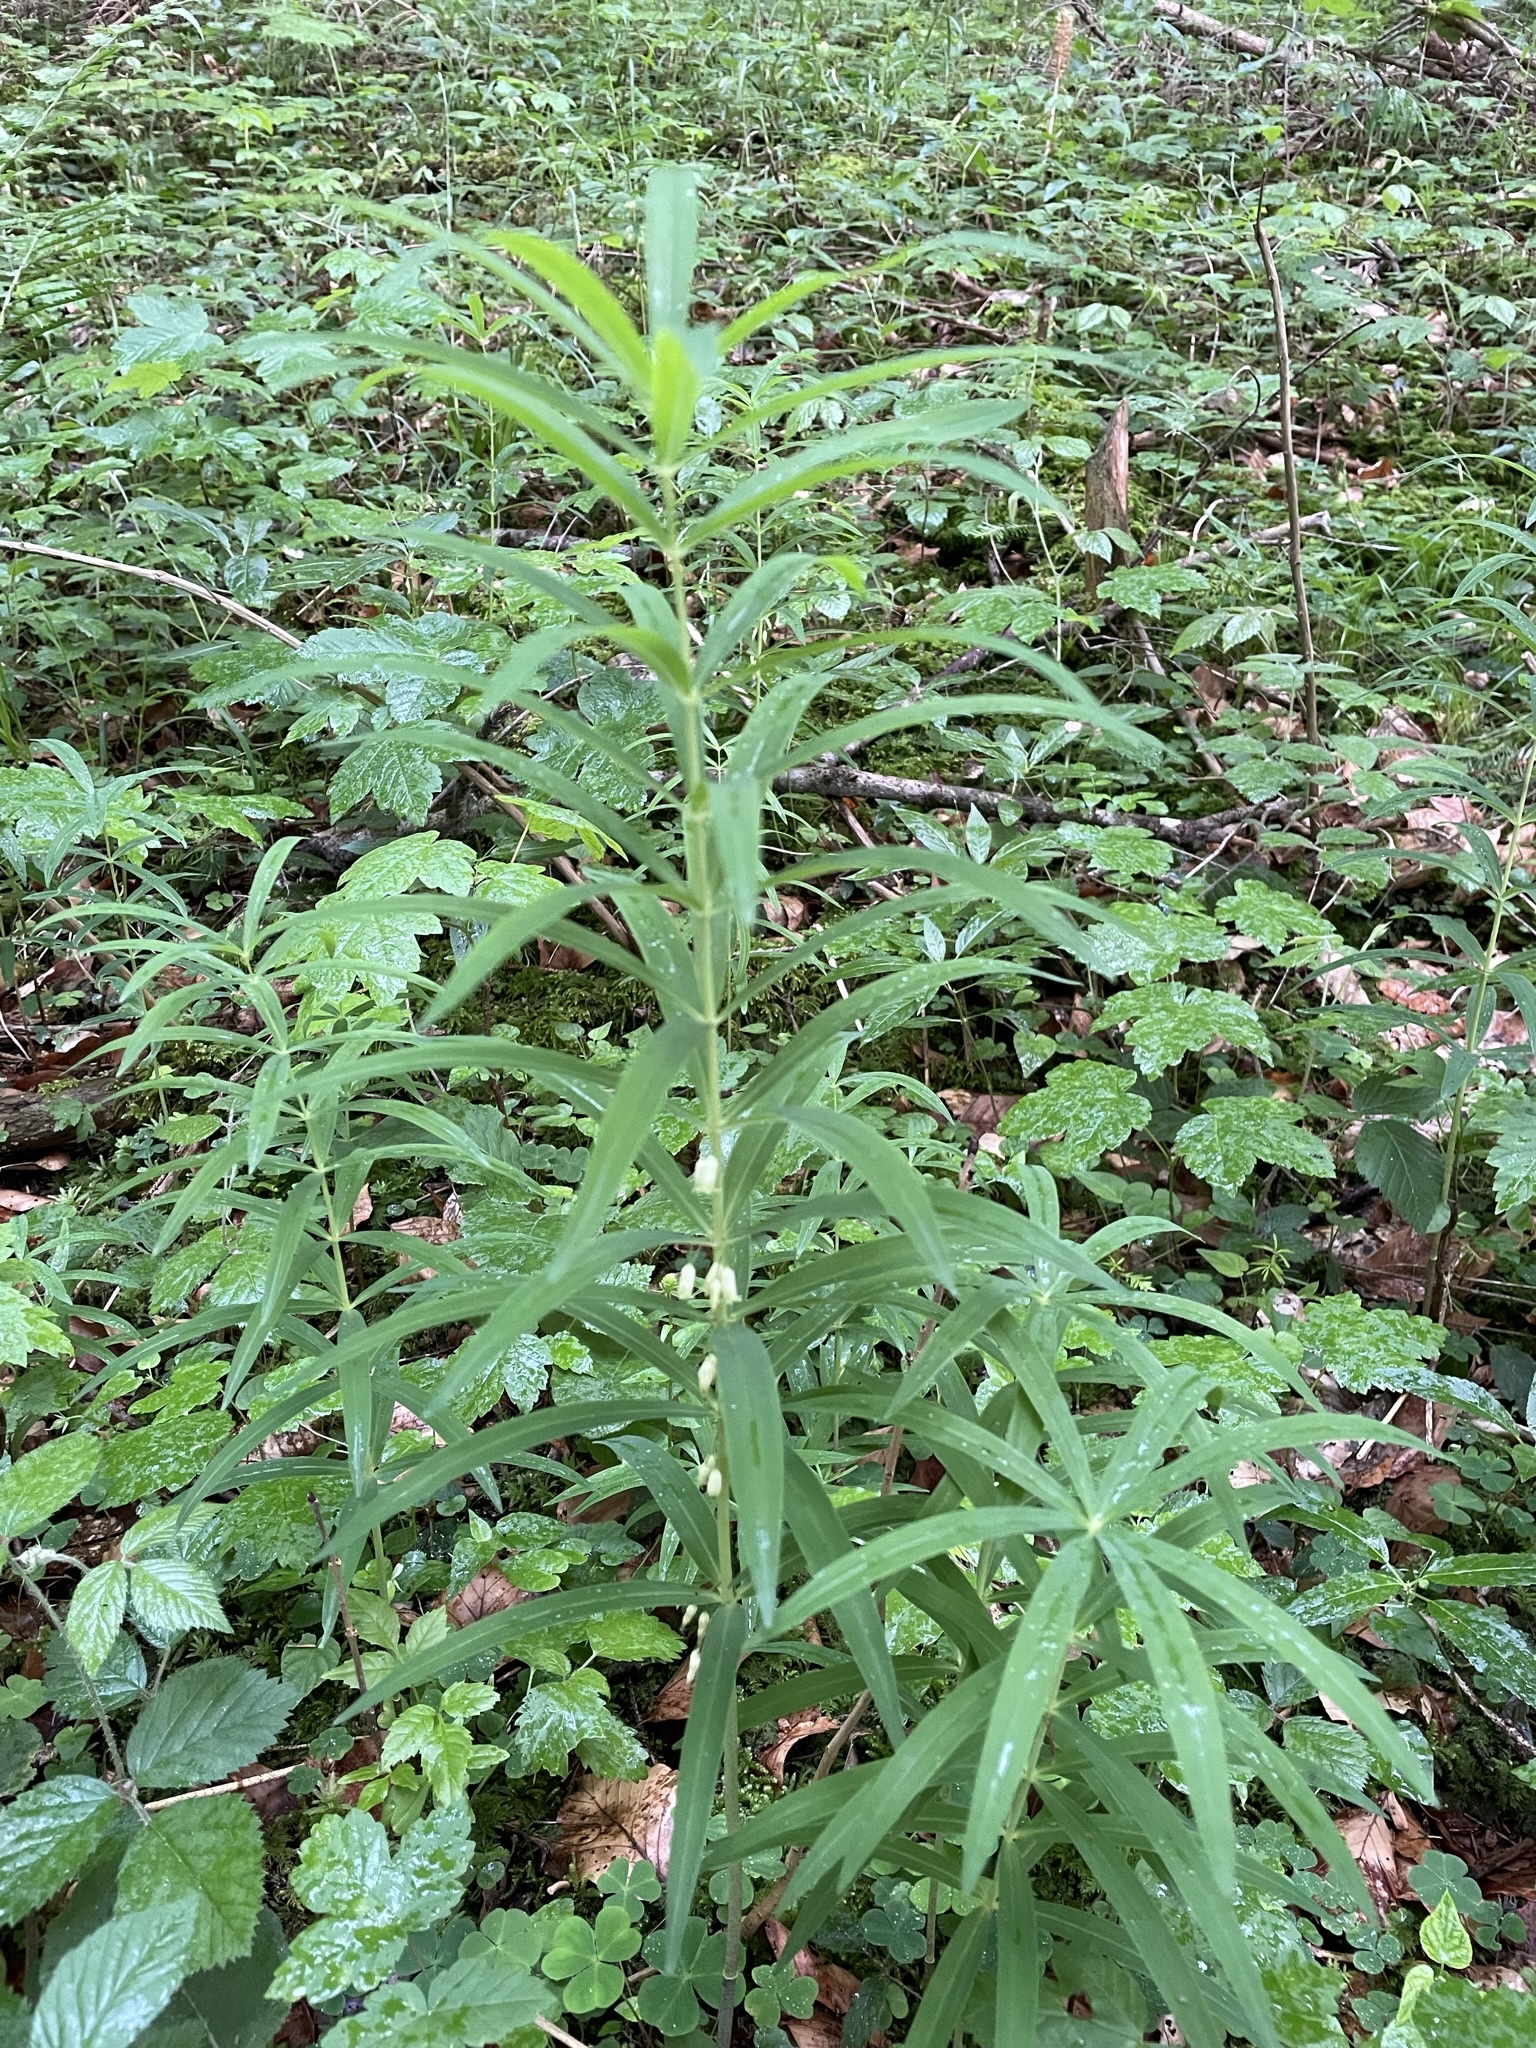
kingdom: Plantae
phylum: Tracheophyta
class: Liliopsida
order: Asparagales
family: Asparagaceae
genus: Polygonatum
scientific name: Polygonatum verticillatum
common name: Whorled solomon's-seal
